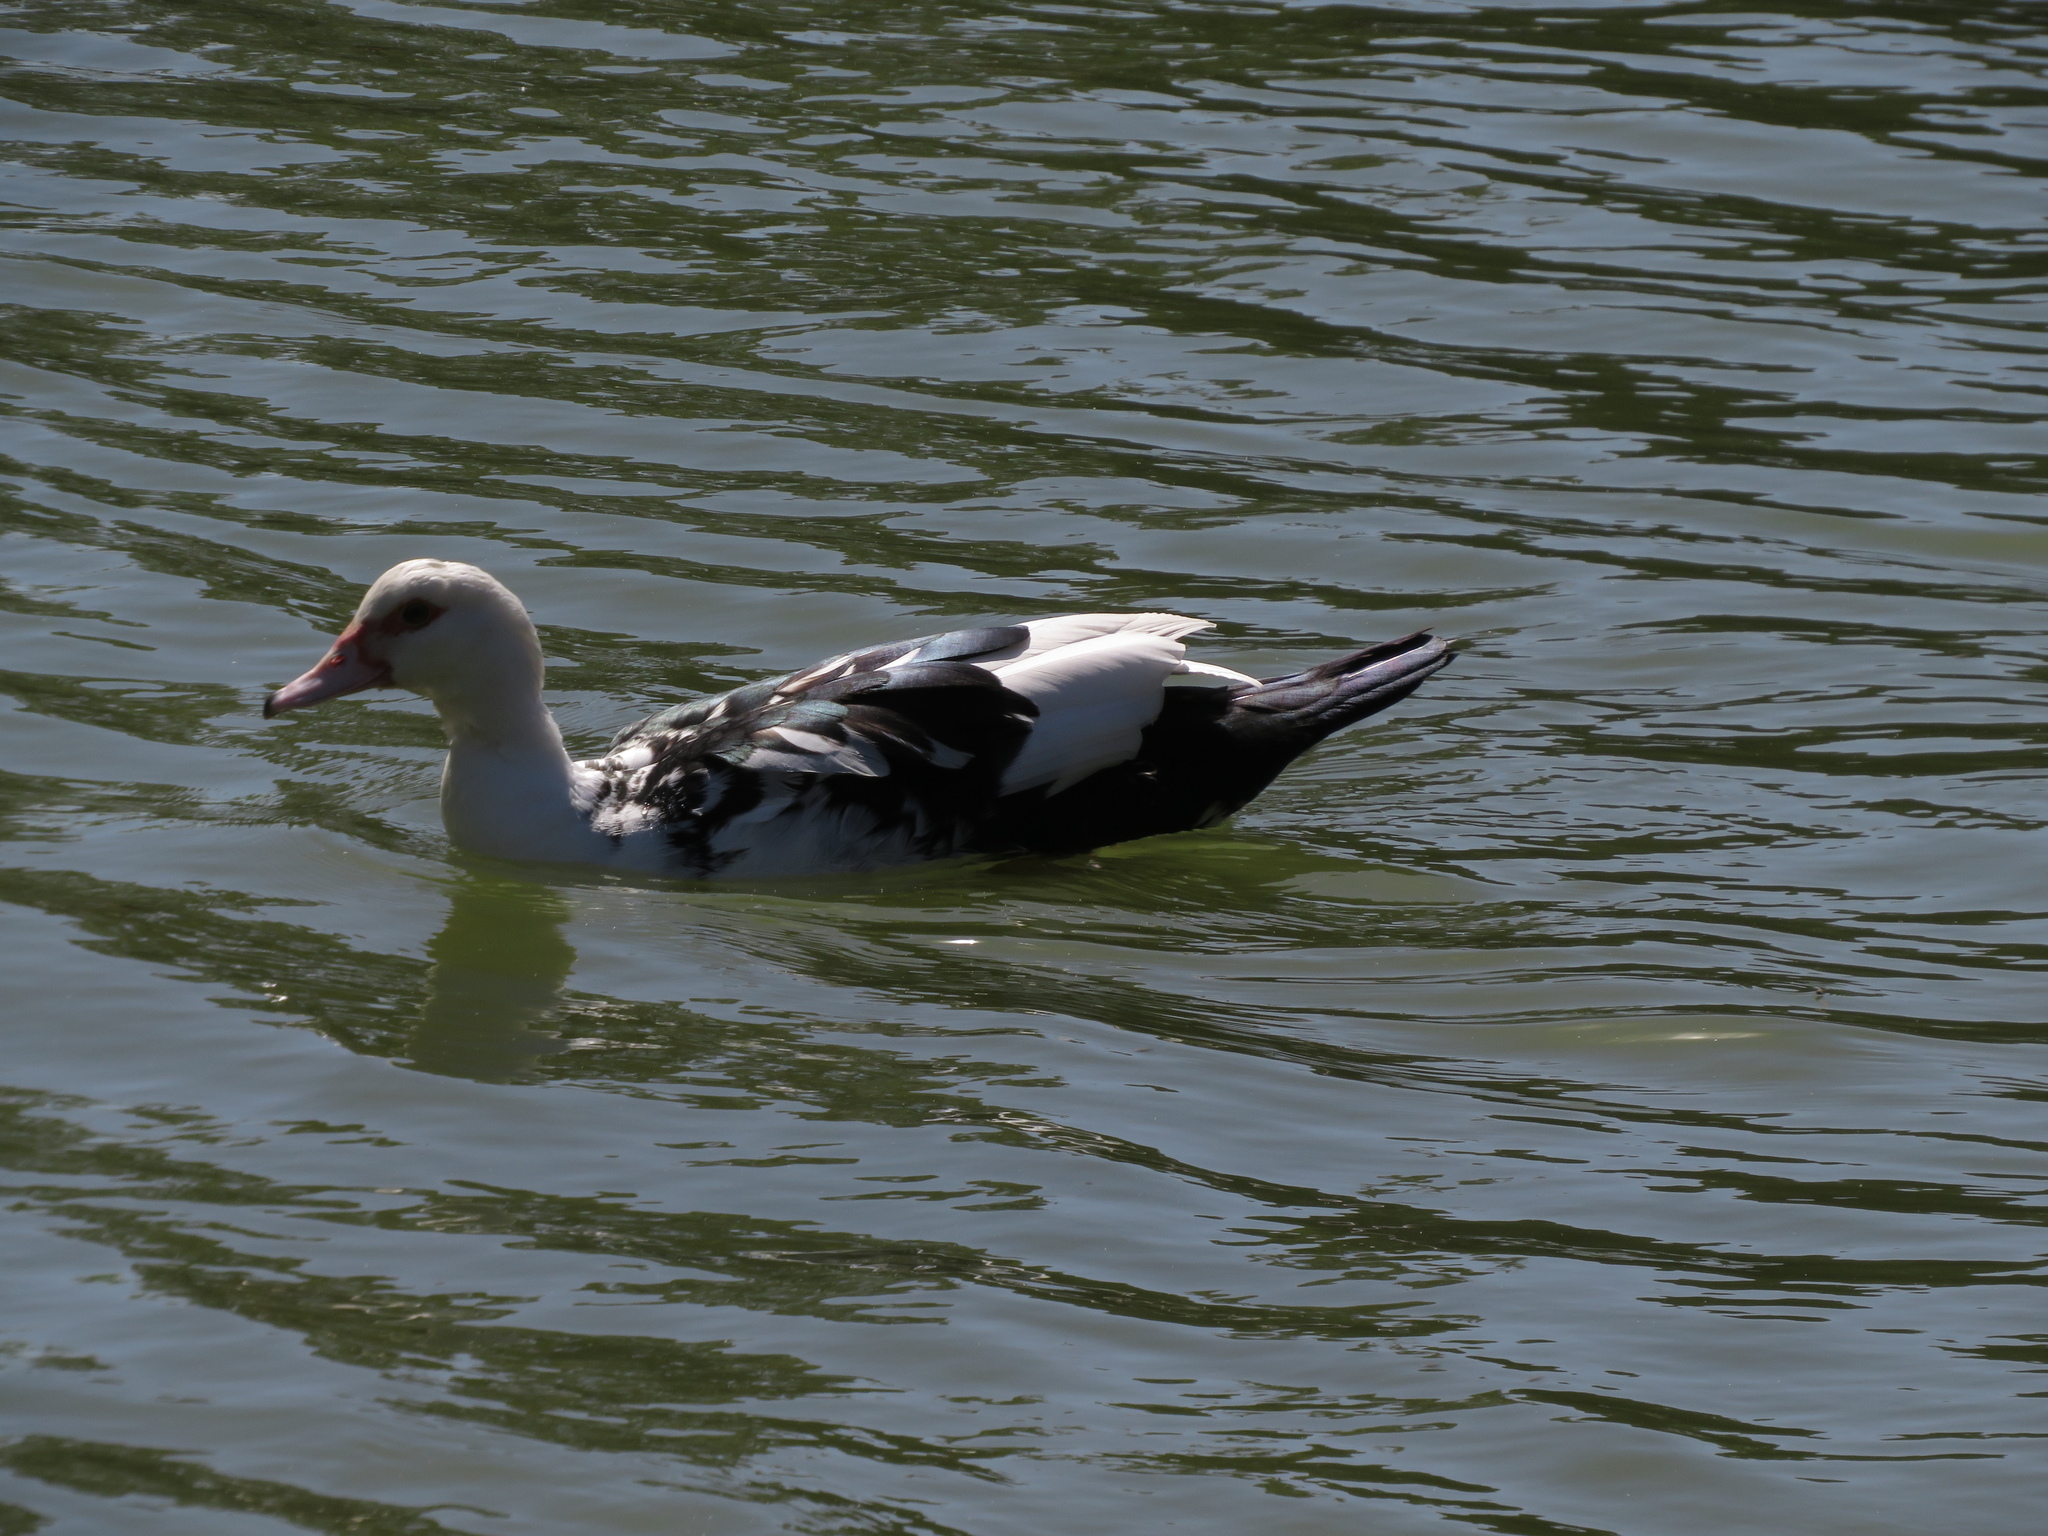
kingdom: Animalia
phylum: Chordata
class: Aves
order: Anseriformes
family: Anatidae
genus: Cairina
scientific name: Cairina moschata
